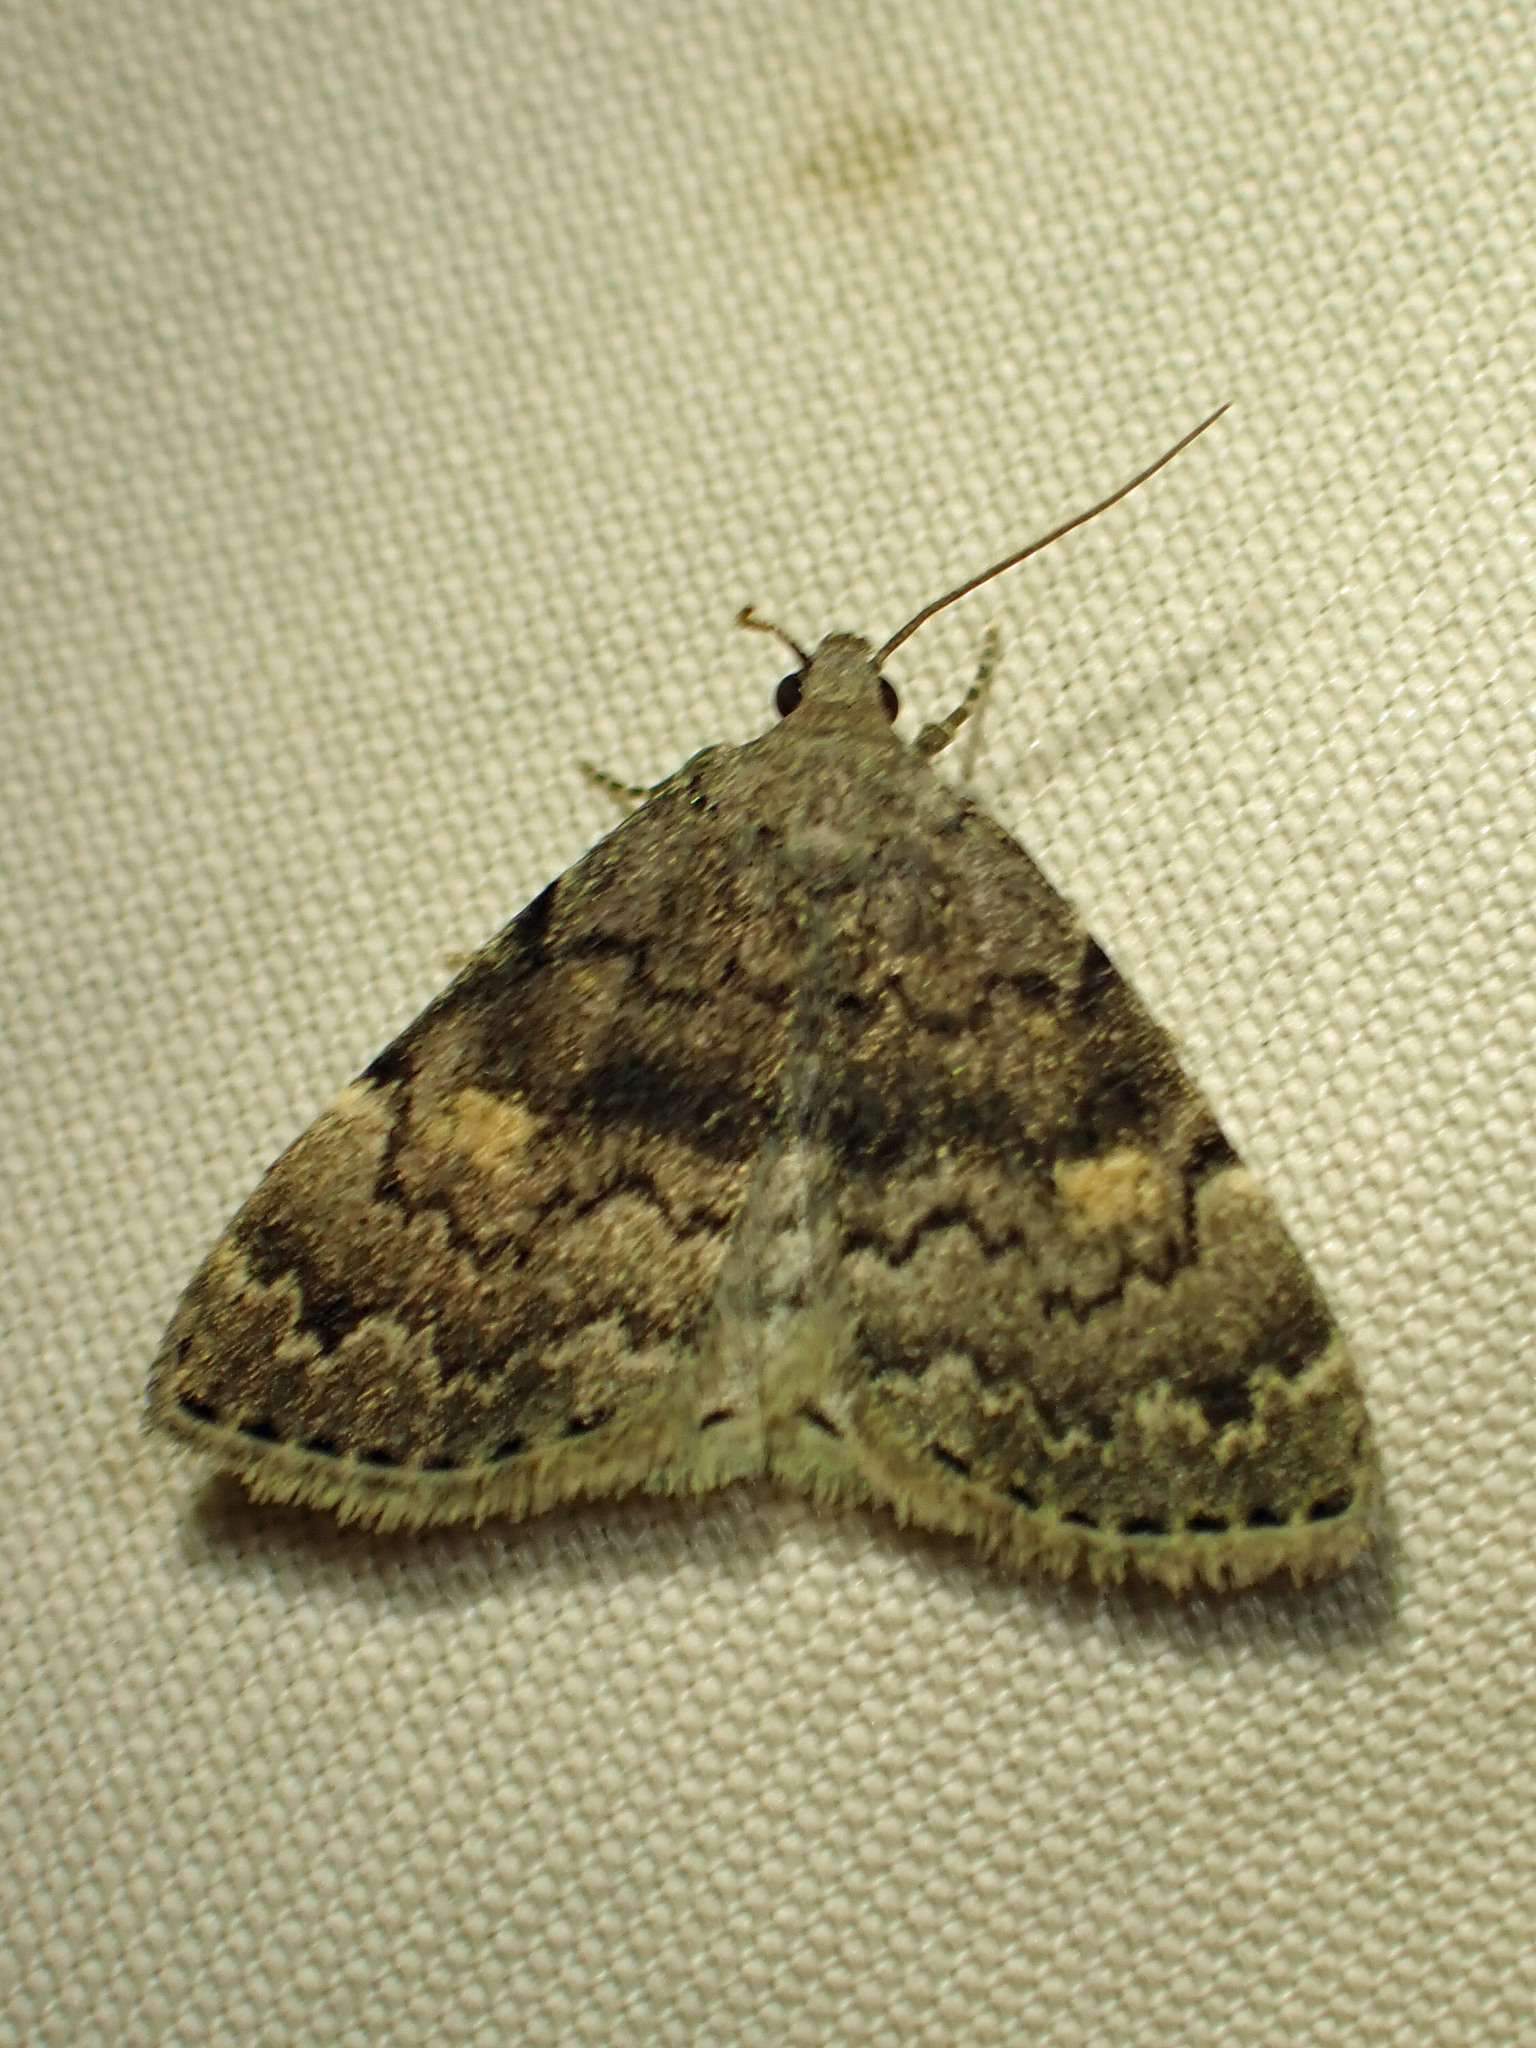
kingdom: Animalia
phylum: Arthropoda
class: Insecta
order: Lepidoptera
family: Erebidae
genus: Idia
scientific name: Idia aemula
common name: Common idia moth
